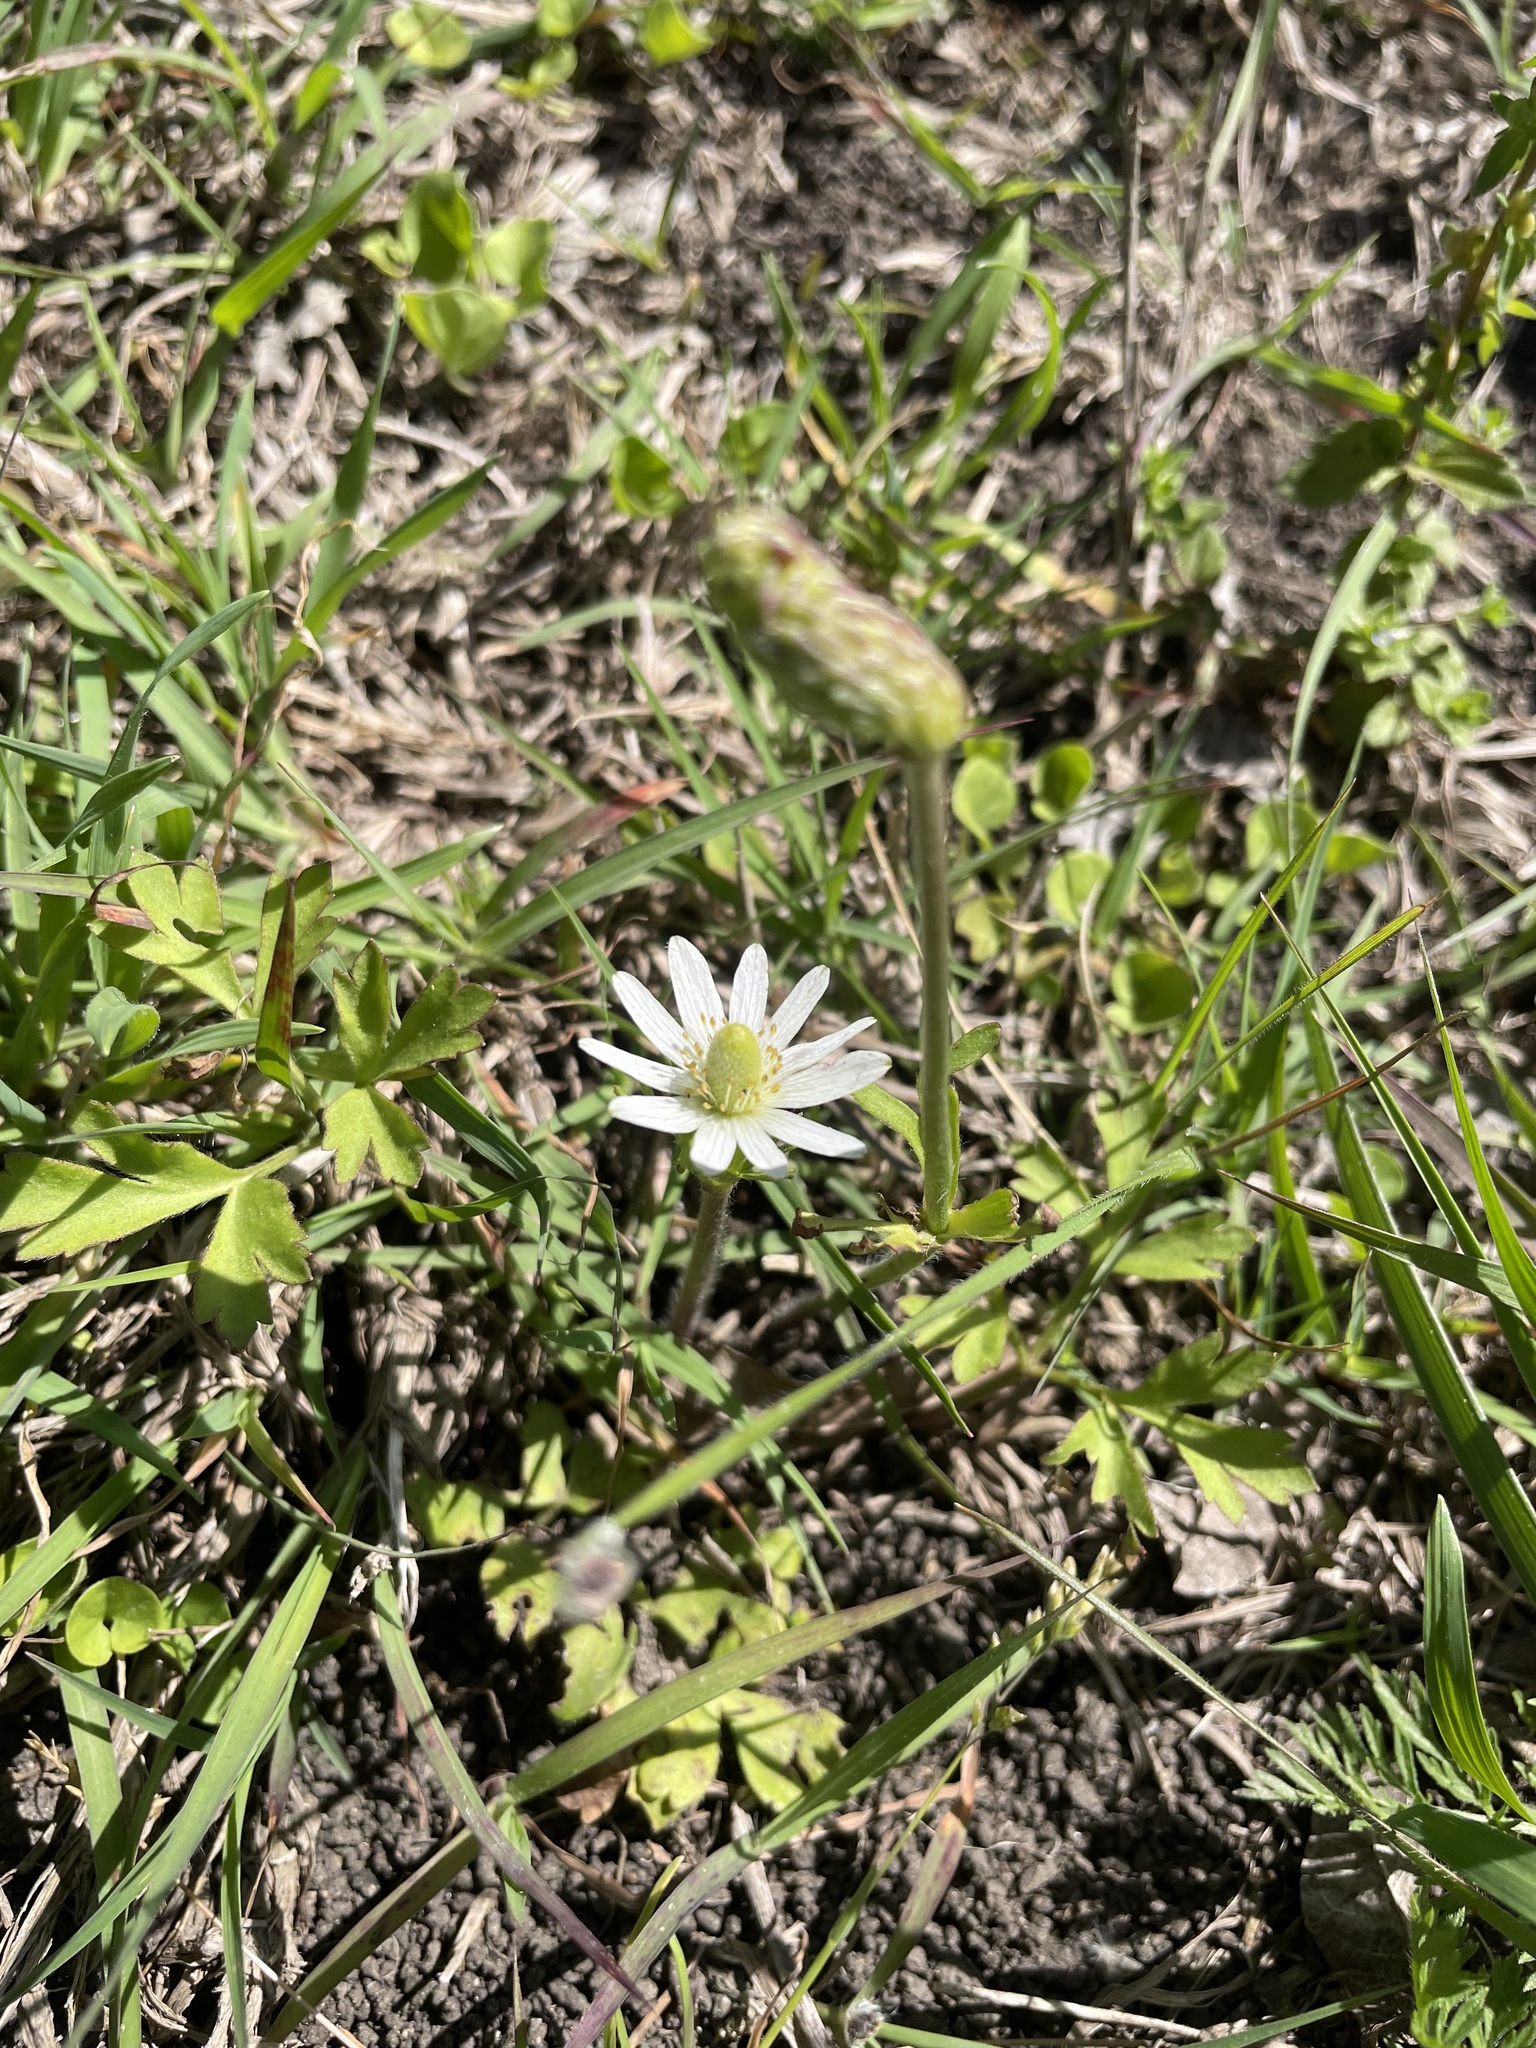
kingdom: Plantae
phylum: Tracheophyta
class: Magnoliopsida
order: Ranunculales
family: Ranunculaceae
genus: Anemone
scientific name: Anemone berlandieri
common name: Ten-petal anemone
